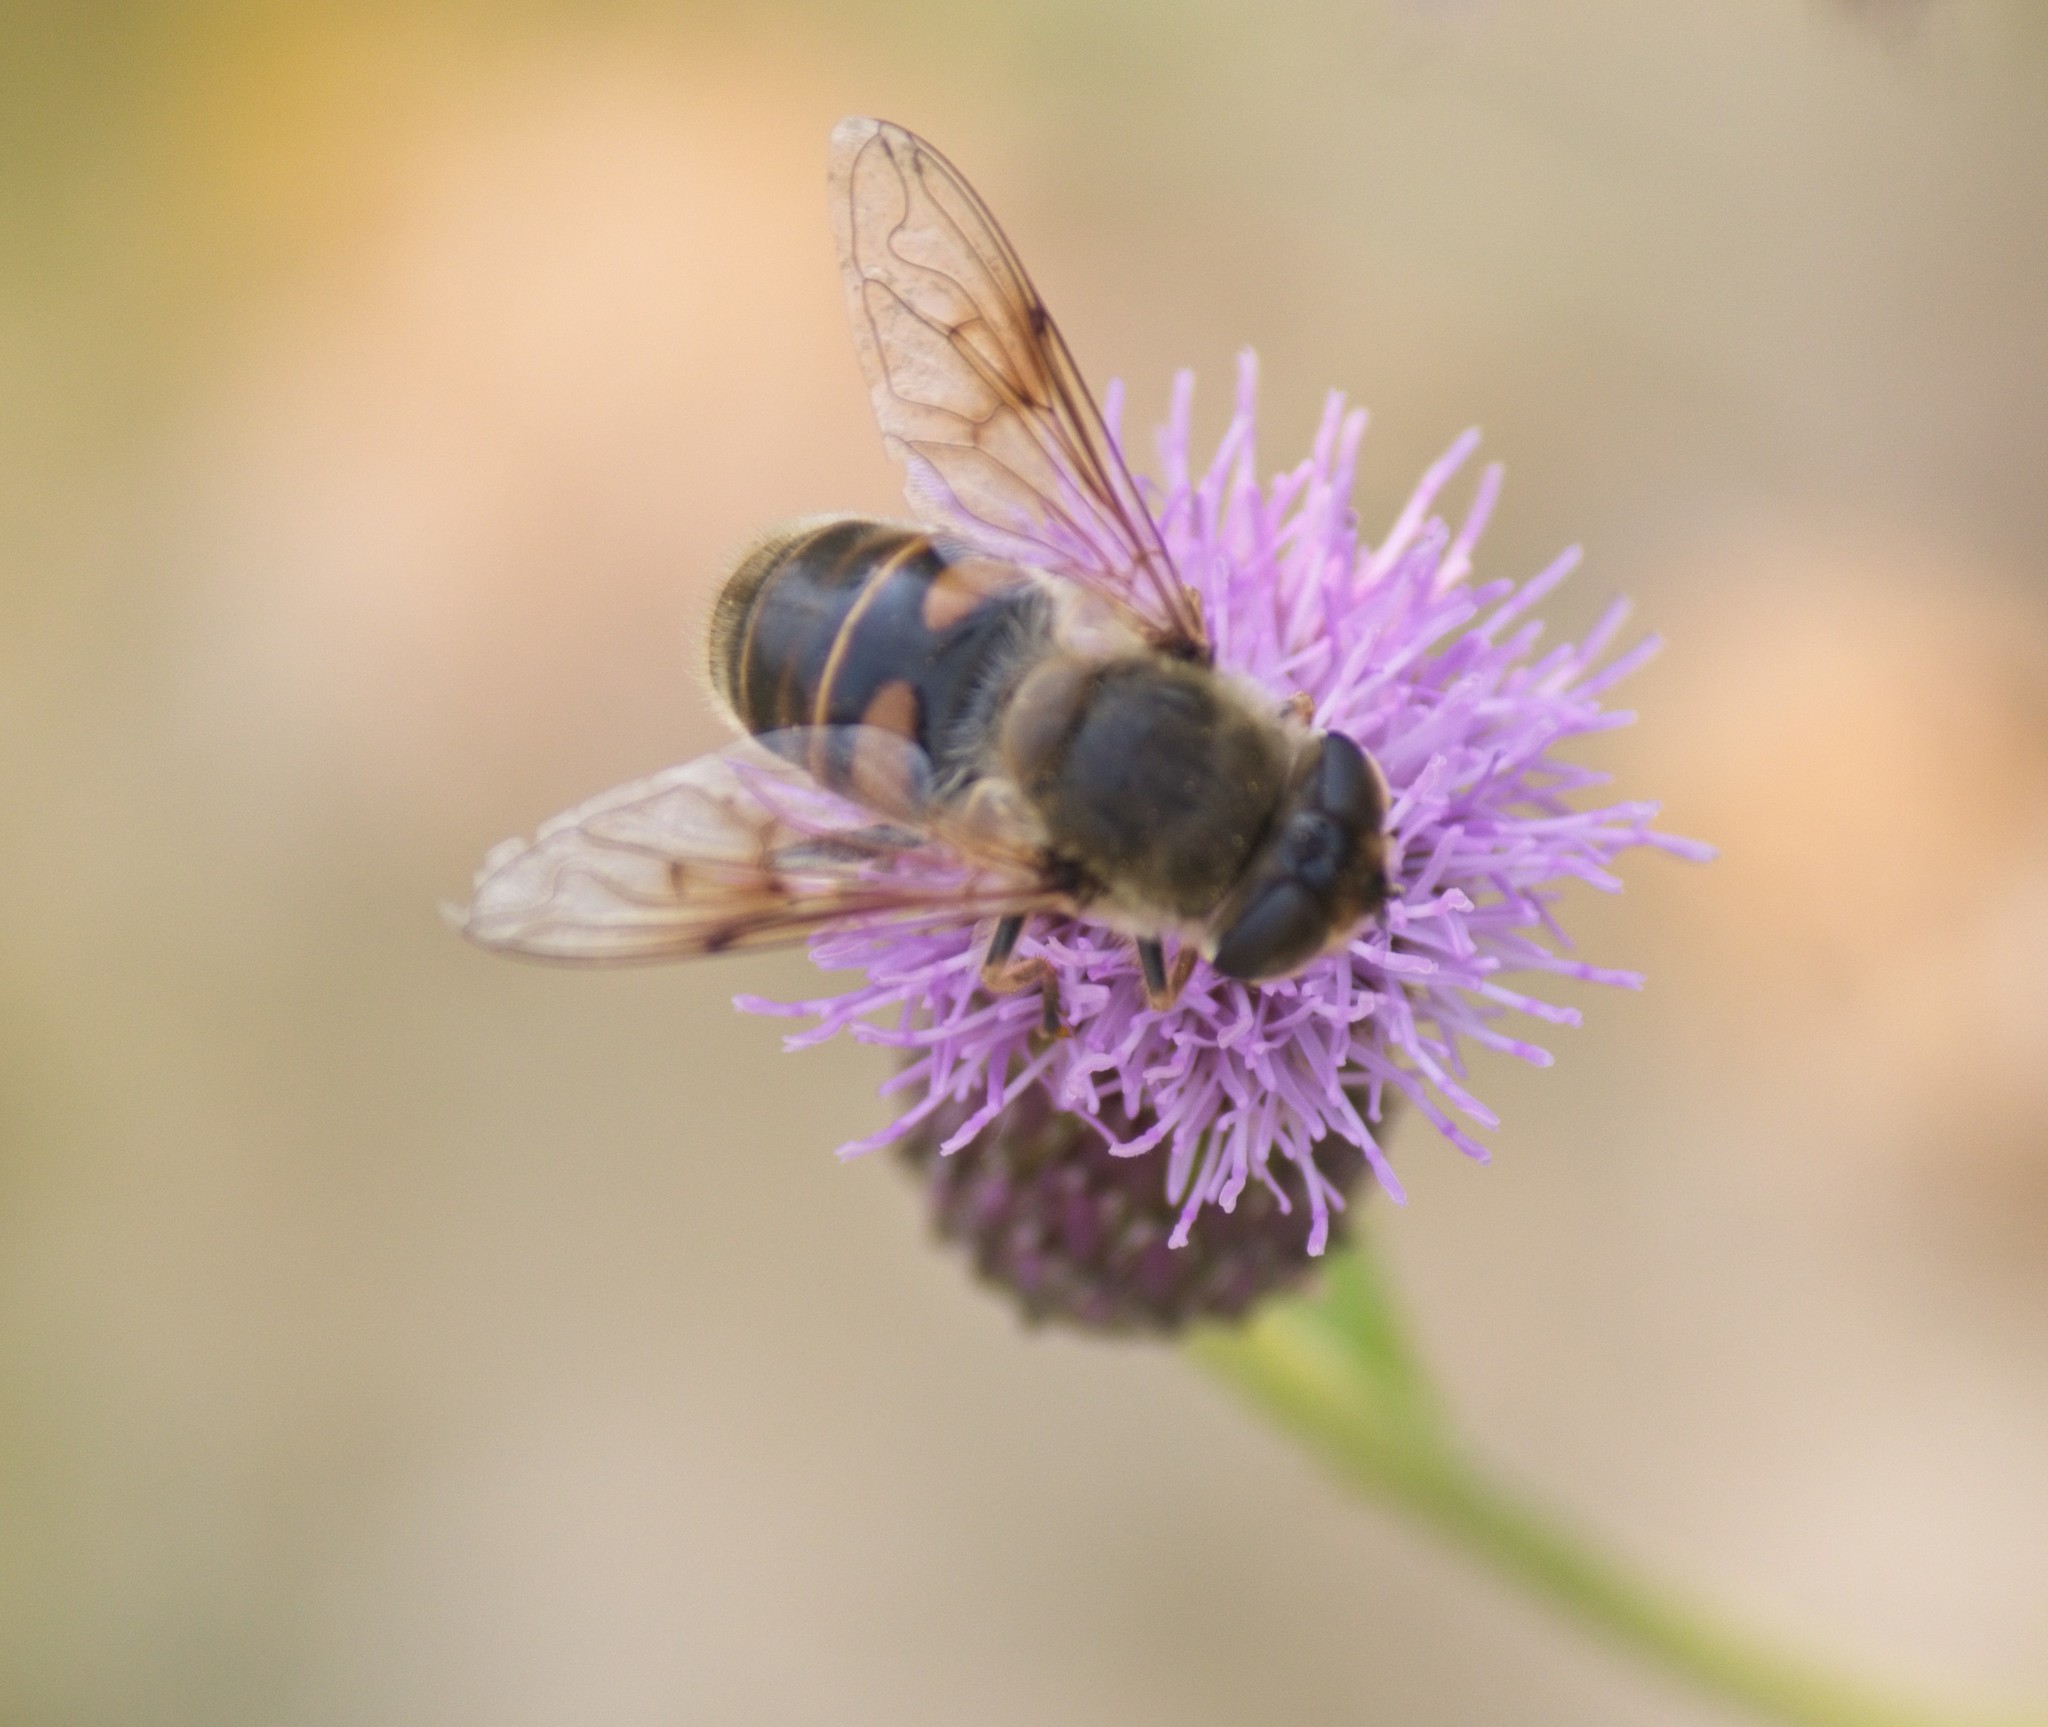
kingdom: Animalia
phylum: Arthropoda
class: Insecta
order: Diptera
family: Syrphidae
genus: Eristalis
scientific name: Eristalis tenax
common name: Drone fly
